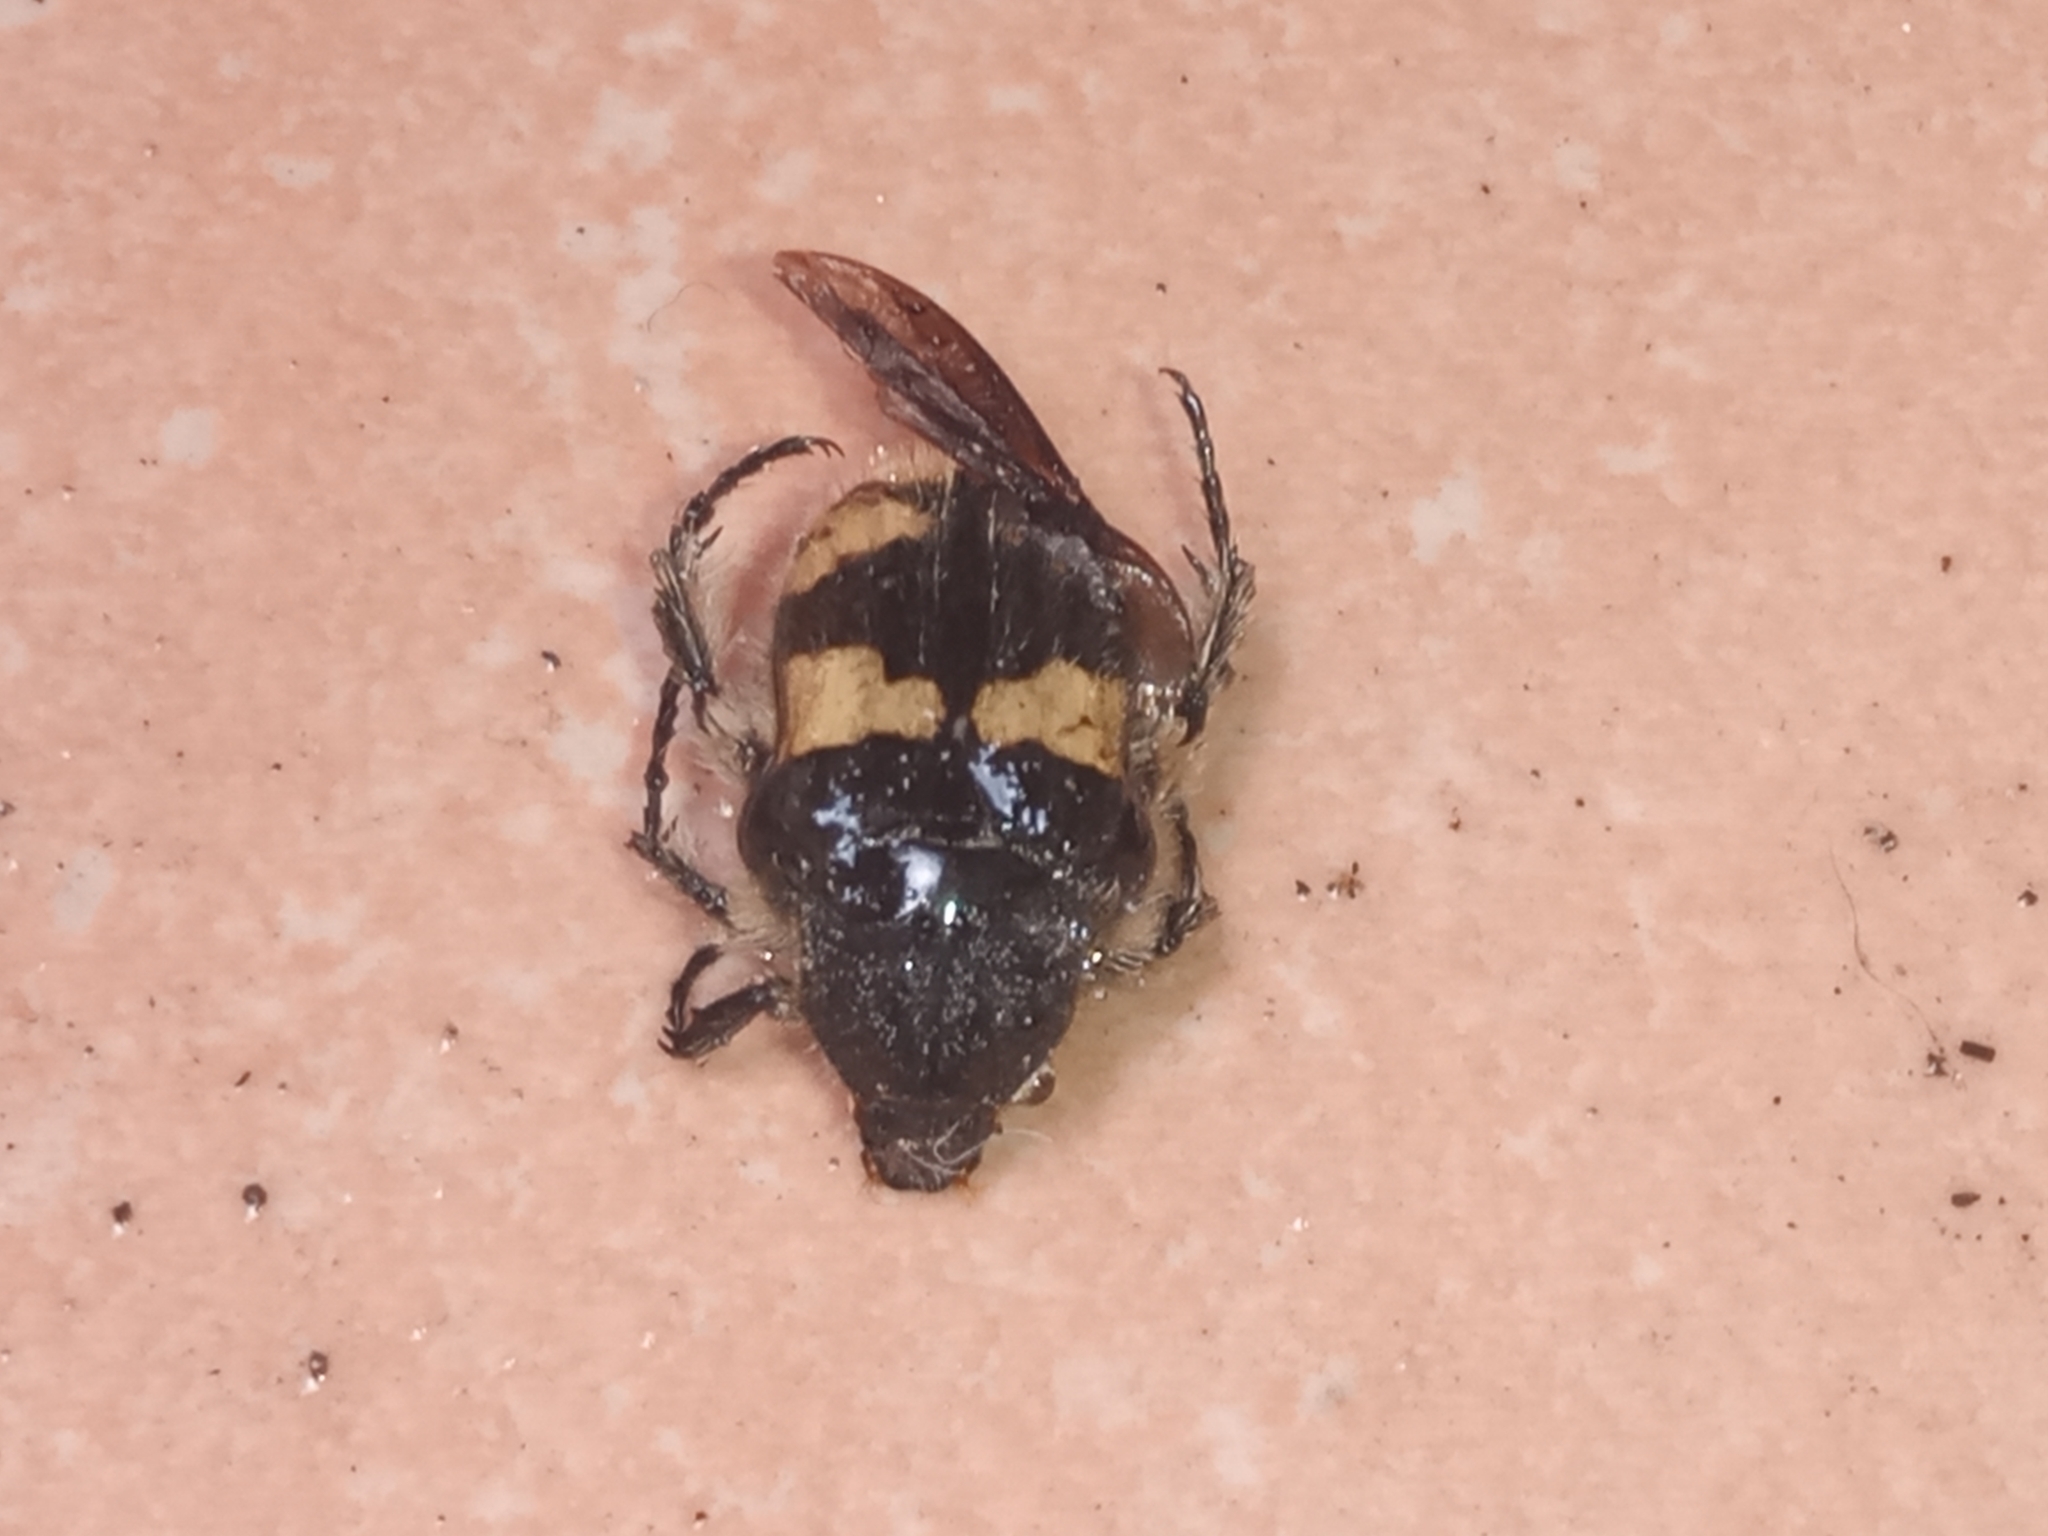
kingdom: Animalia
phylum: Arthropoda
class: Insecta
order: Coleoptera
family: Scarabaeidae
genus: Euphoria
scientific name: Euphoria basalis
